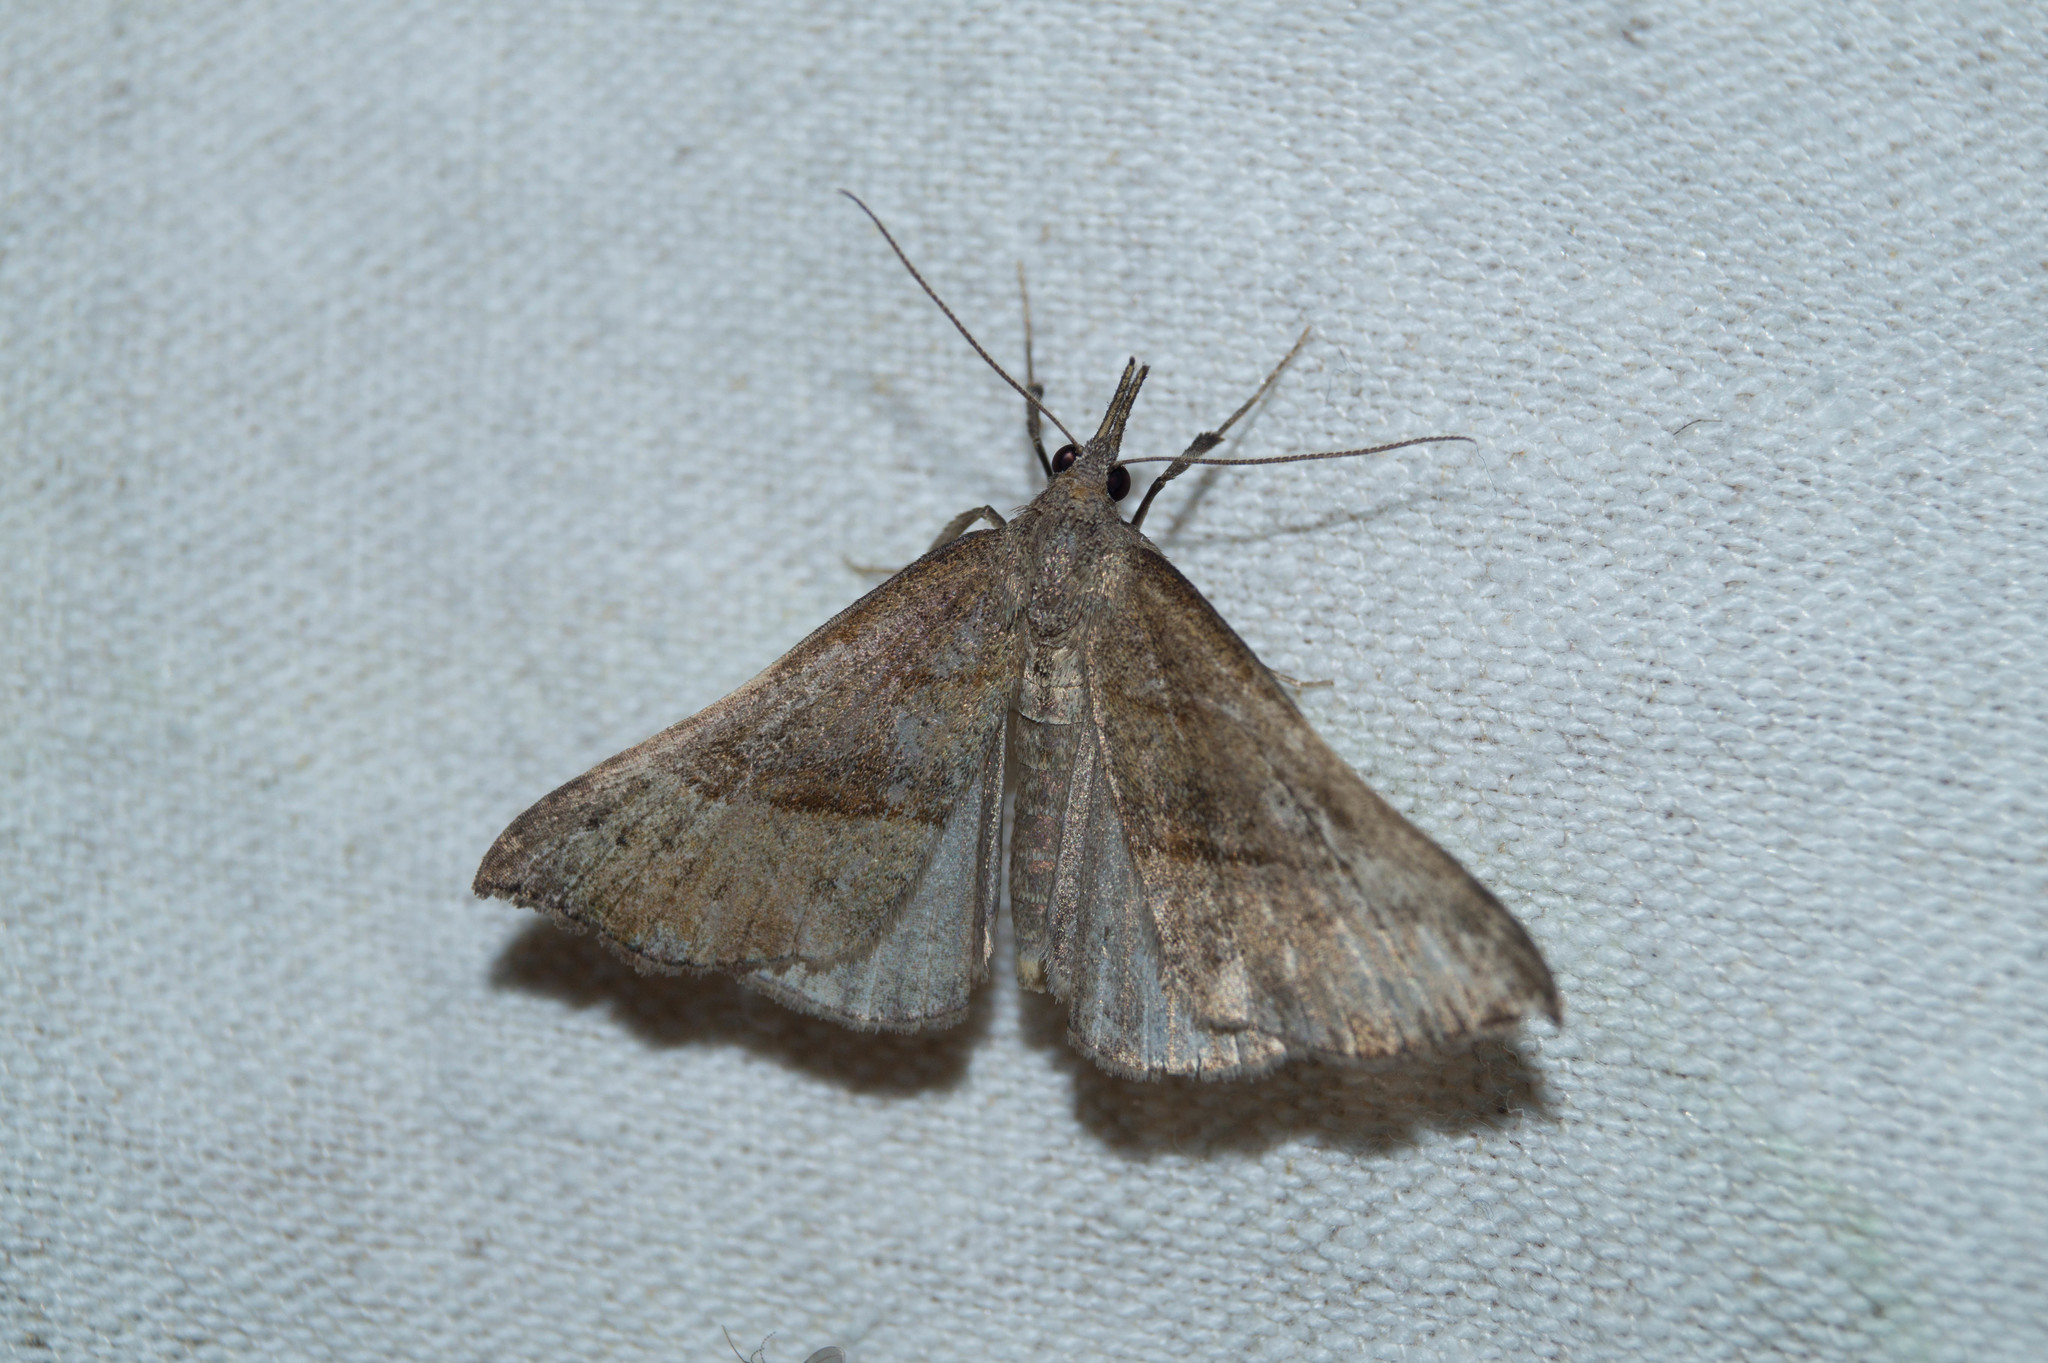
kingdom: Animalia
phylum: Arthropoda
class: Insecta
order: Lepidoptera
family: Erebidae
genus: Hypena
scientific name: Hypena proboscidalis
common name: Snout
